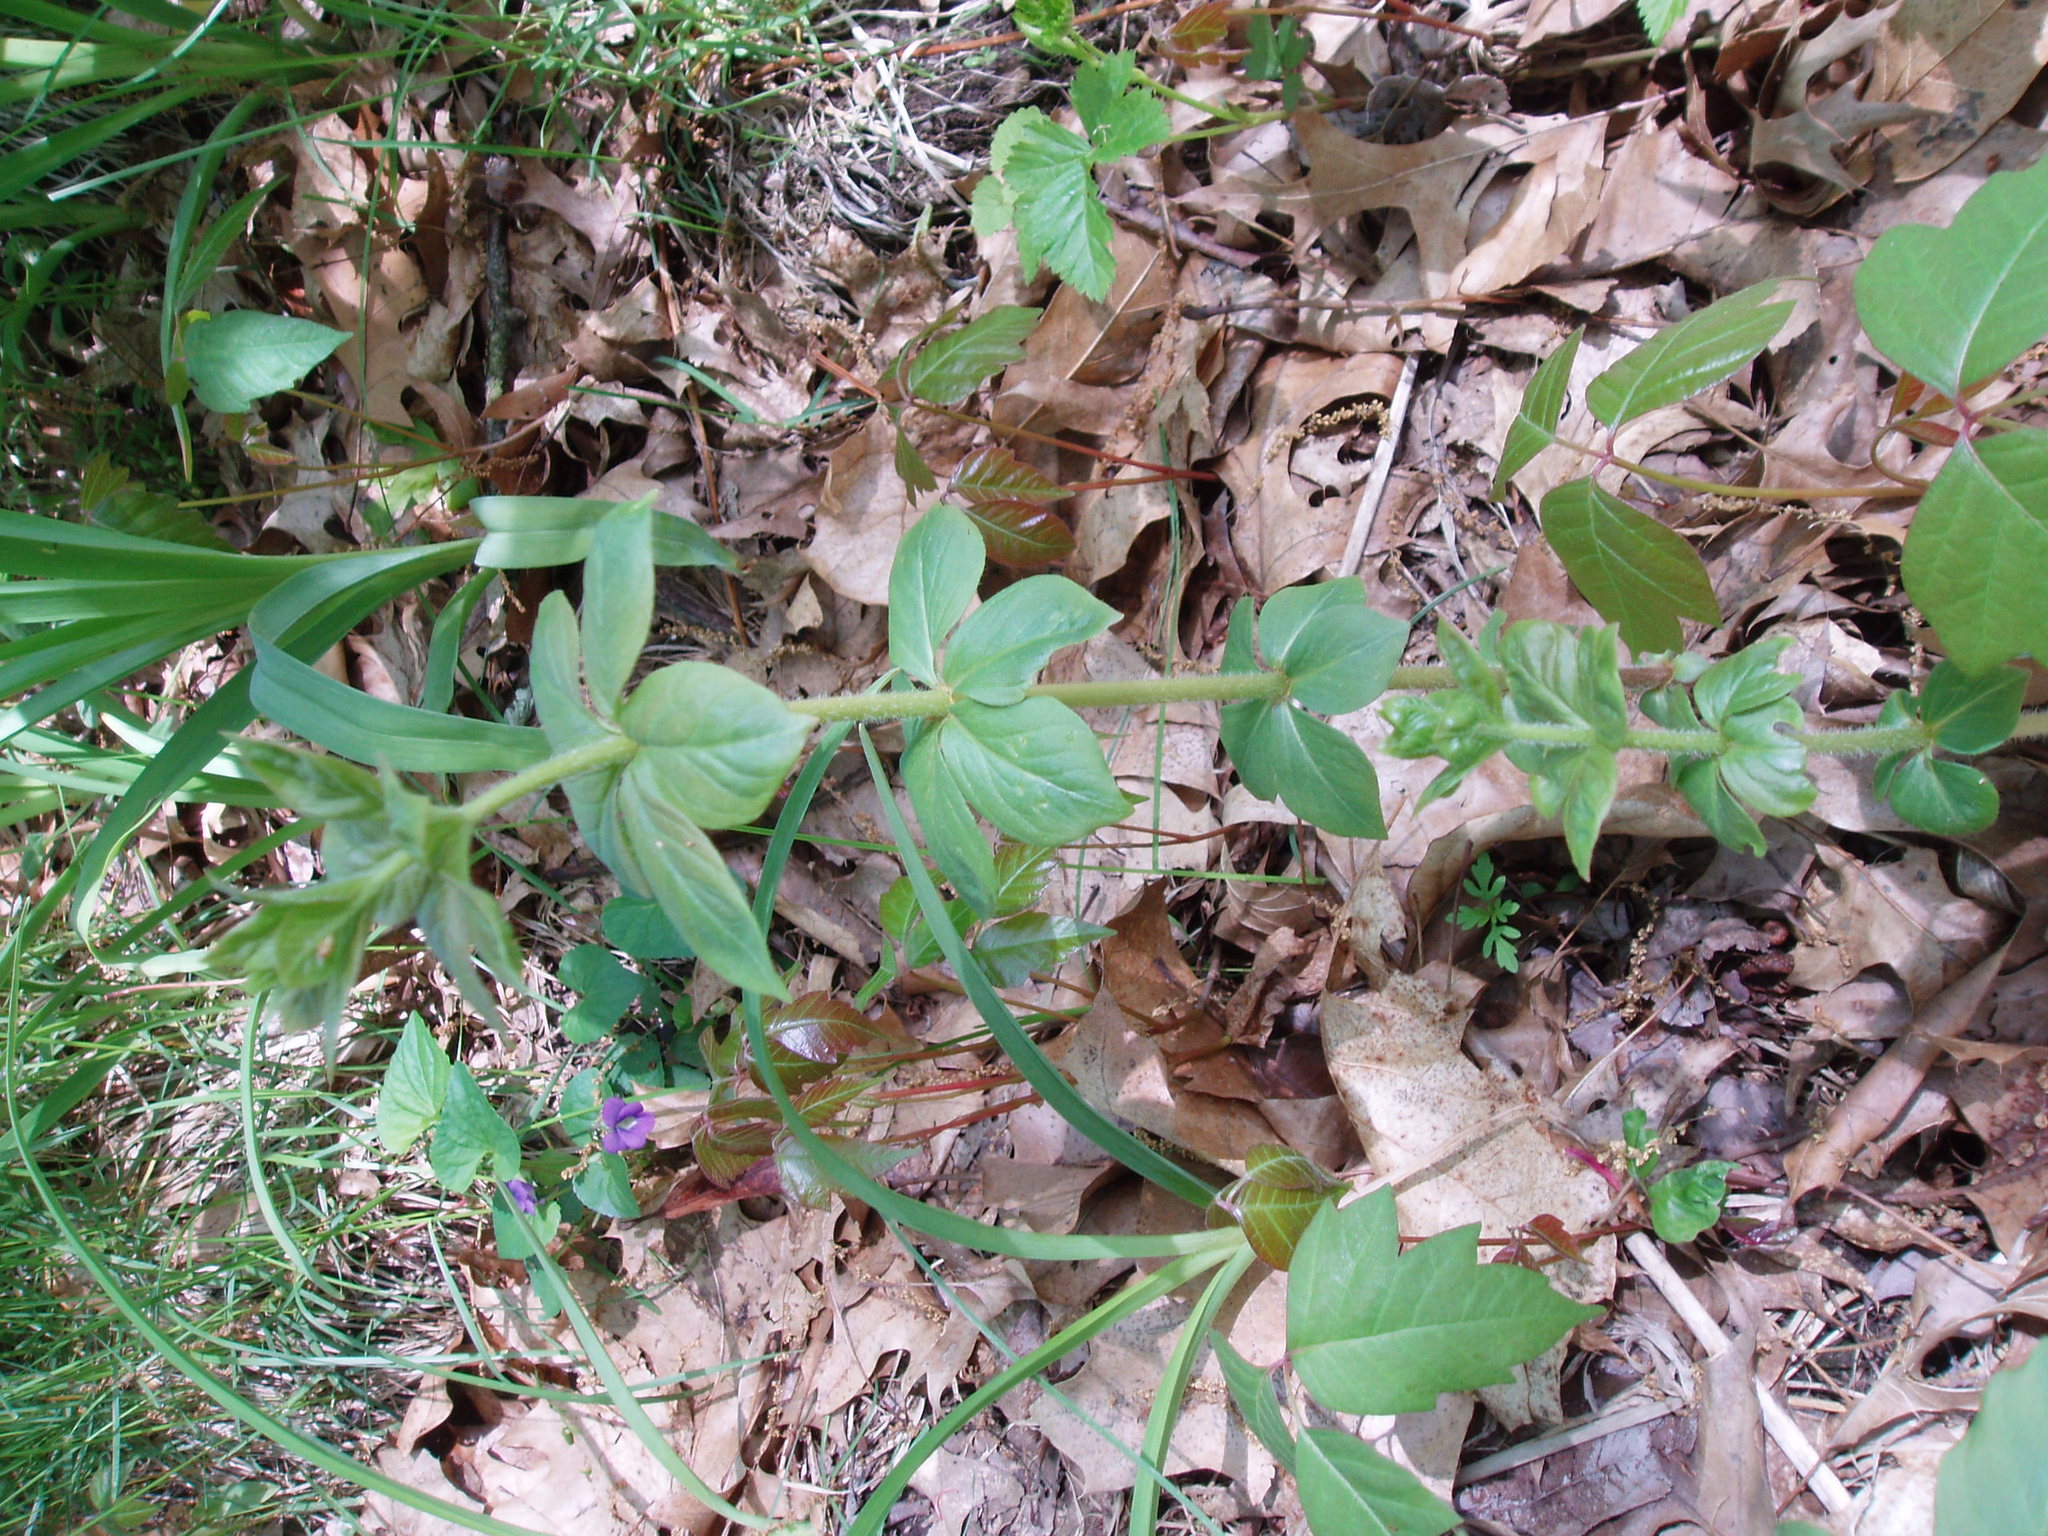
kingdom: Plantae
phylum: Tracheophyta
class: Magnoliopsida
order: Ericales
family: Primulaceae
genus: Lysimachia
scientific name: Lysimachia quadrifolia
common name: Whorled loosestrife
